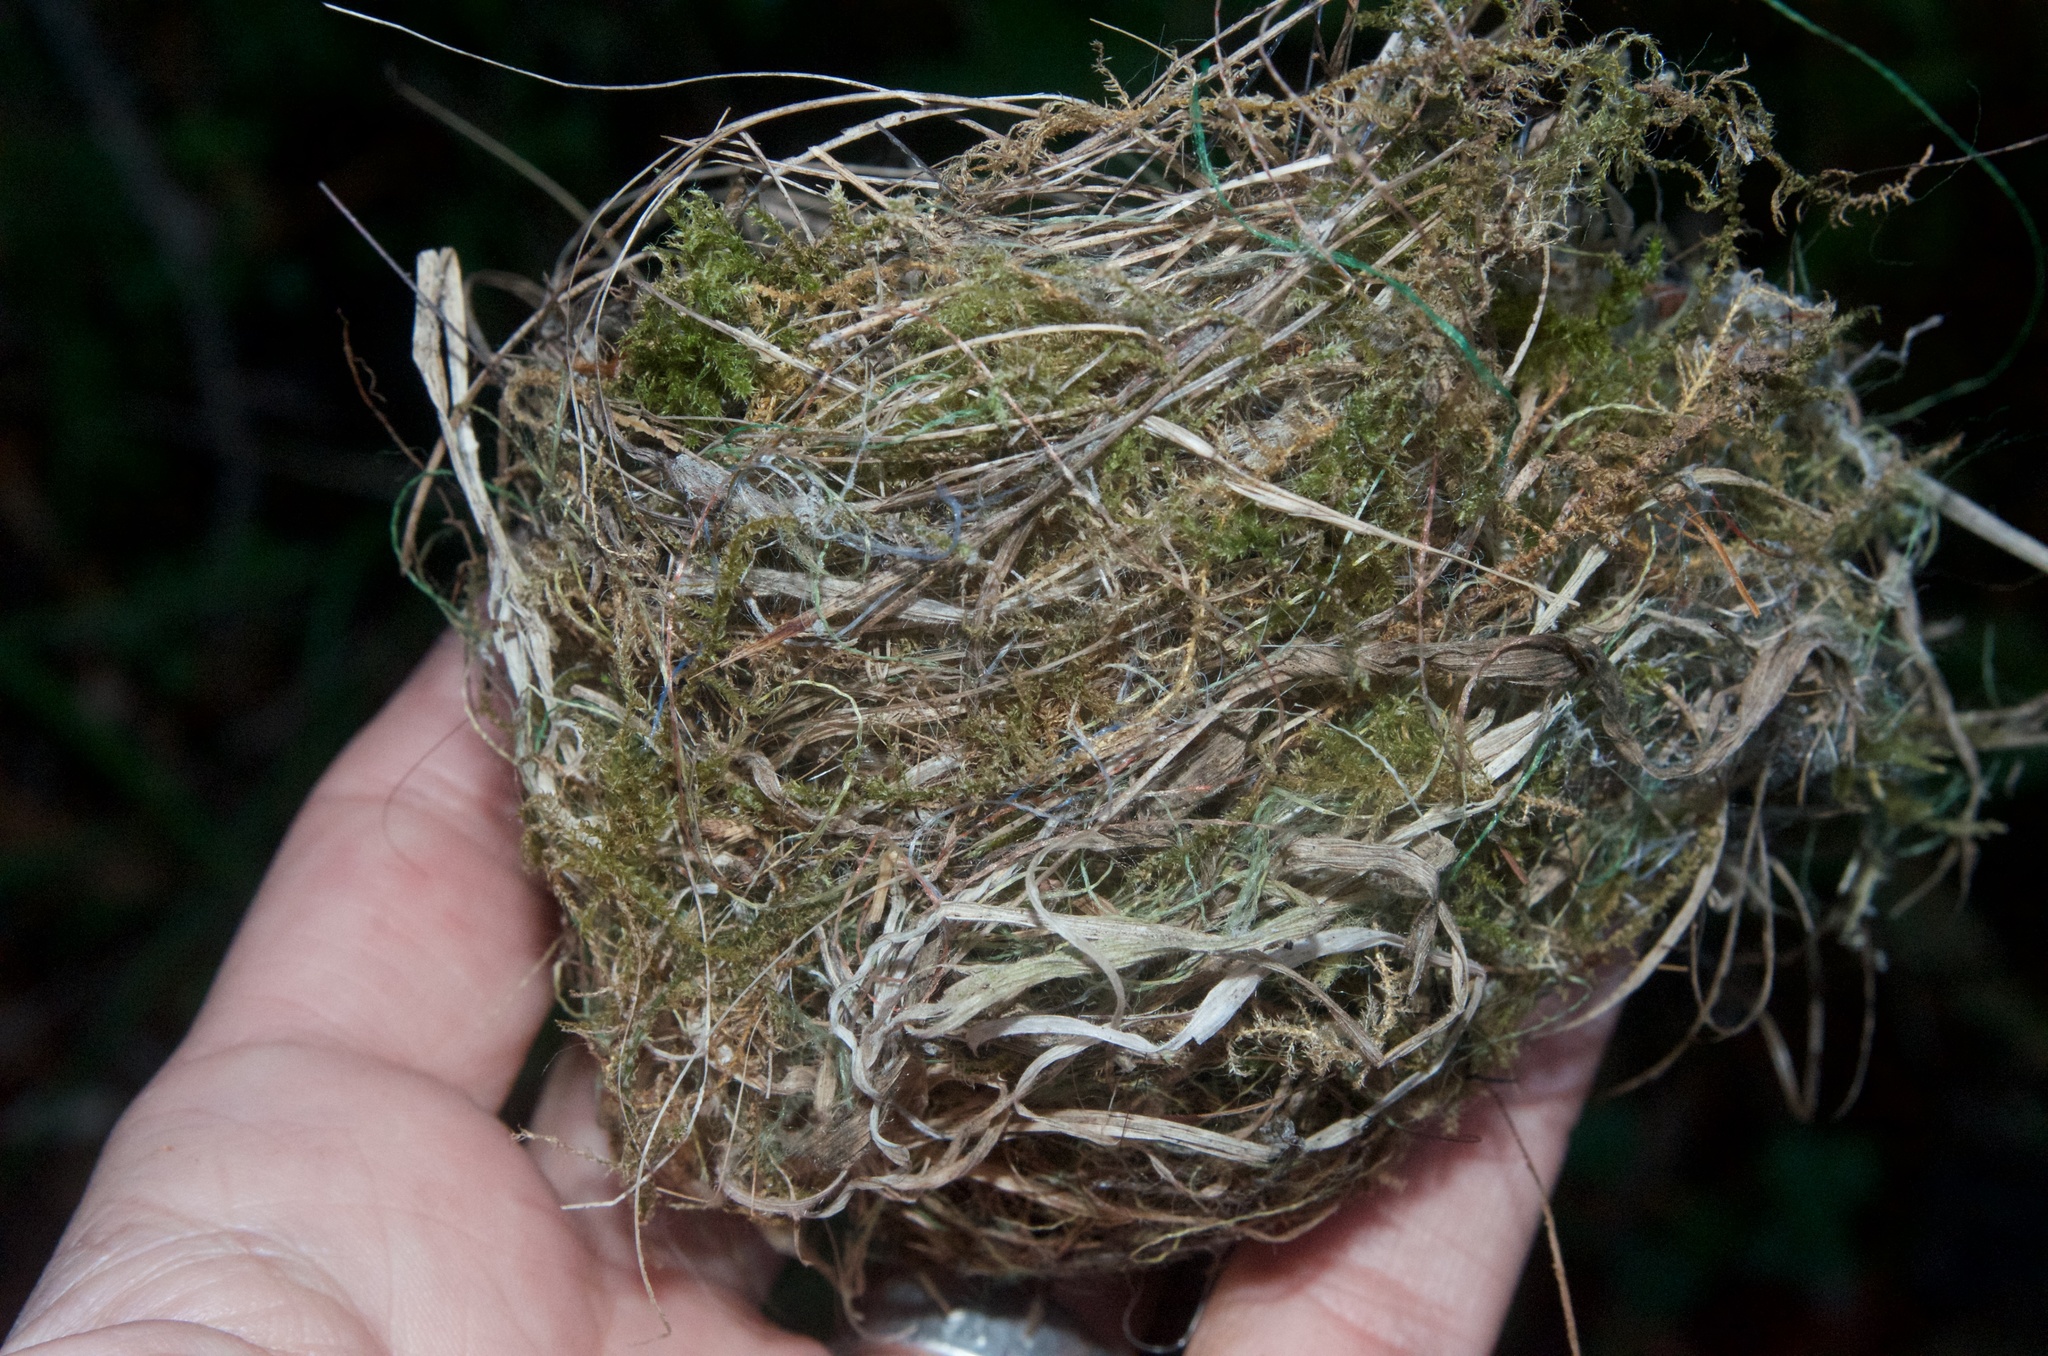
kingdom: Animalia
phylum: Chordata
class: Aves
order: Passeriformes
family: Zosteropidae
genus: Zosterops
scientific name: Zosterops lateralis
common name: Silvereye
